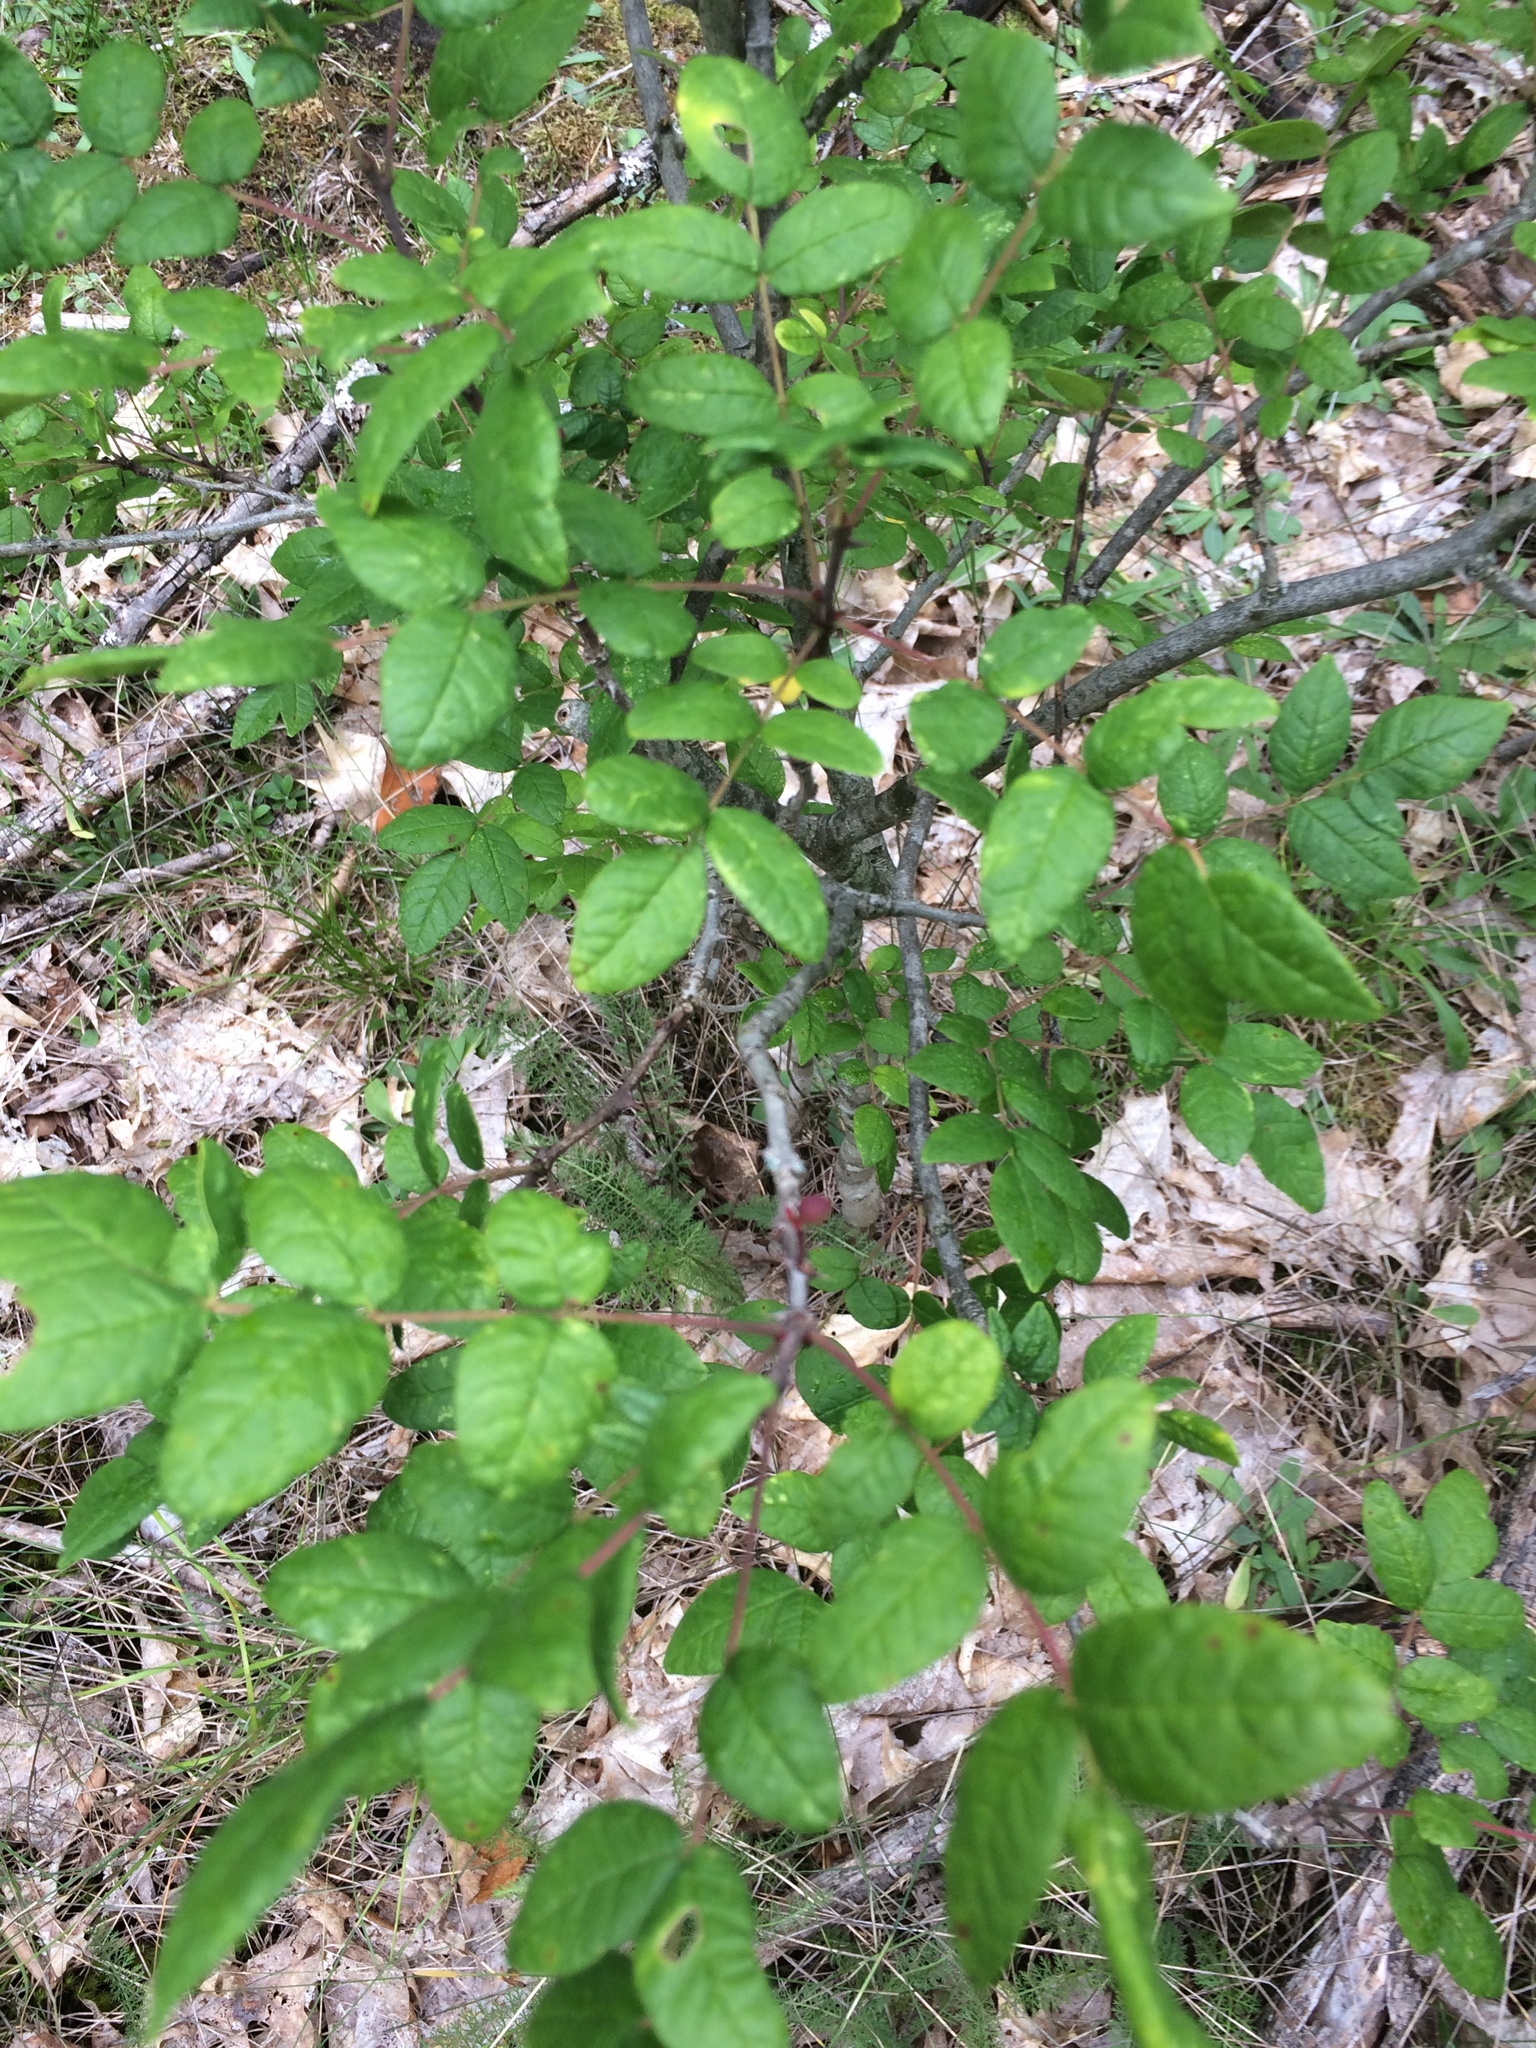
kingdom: Plantae
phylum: Tracheophyta
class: Magnoliopsida
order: Sapindales
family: Rutaceae
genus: Zanthoxylum
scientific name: Zanthoxylum americanum
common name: Northern prickly-ash
